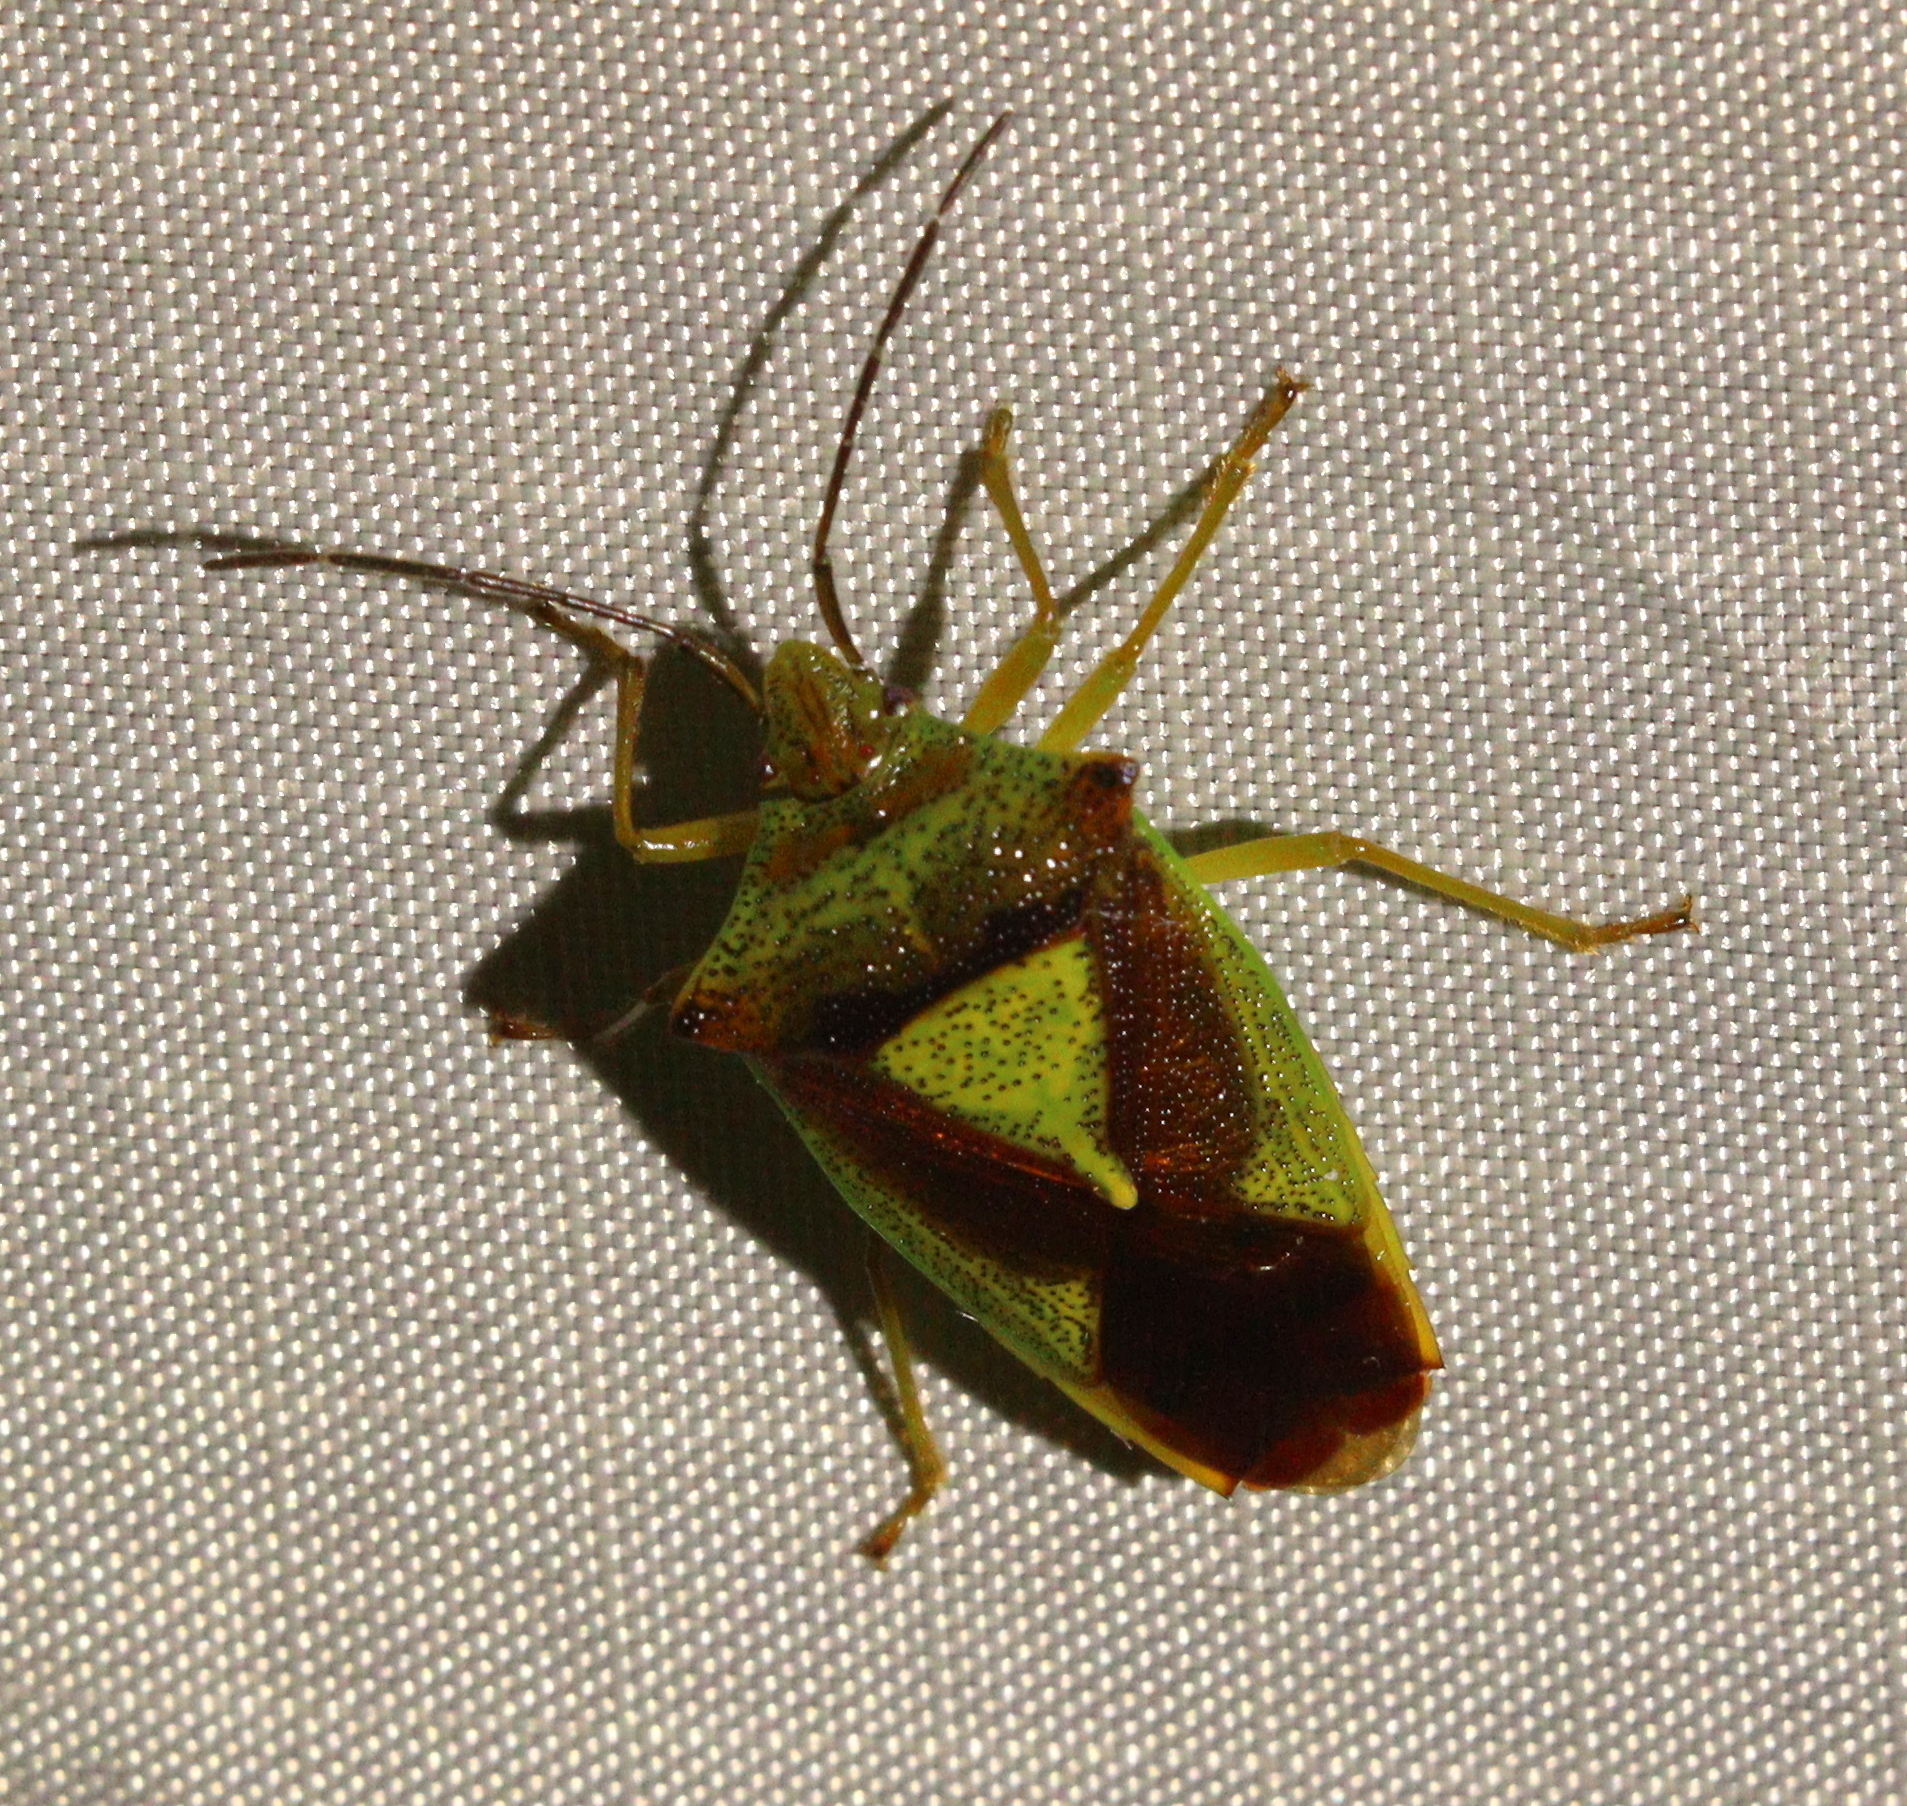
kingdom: Animalia
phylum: Arthropoda
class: Insecta
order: Hemiptera
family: Acanthosomatidae
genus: Acanthosoma
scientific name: Acanthosoma haemorrhoidale
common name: Hawthorn shieldbug
